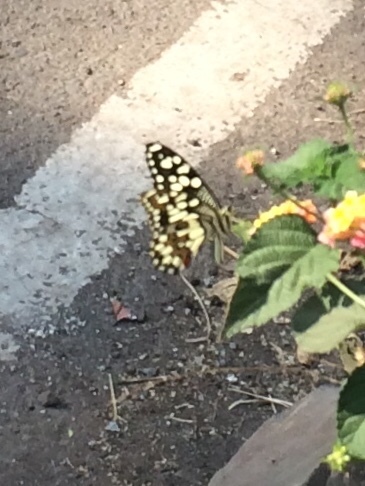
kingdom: Animalia
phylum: Arthropoda
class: Insecta
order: Lepidoptera
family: Papilionidae
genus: Papilio
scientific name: Papilio demoleus
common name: Lime butterfly
